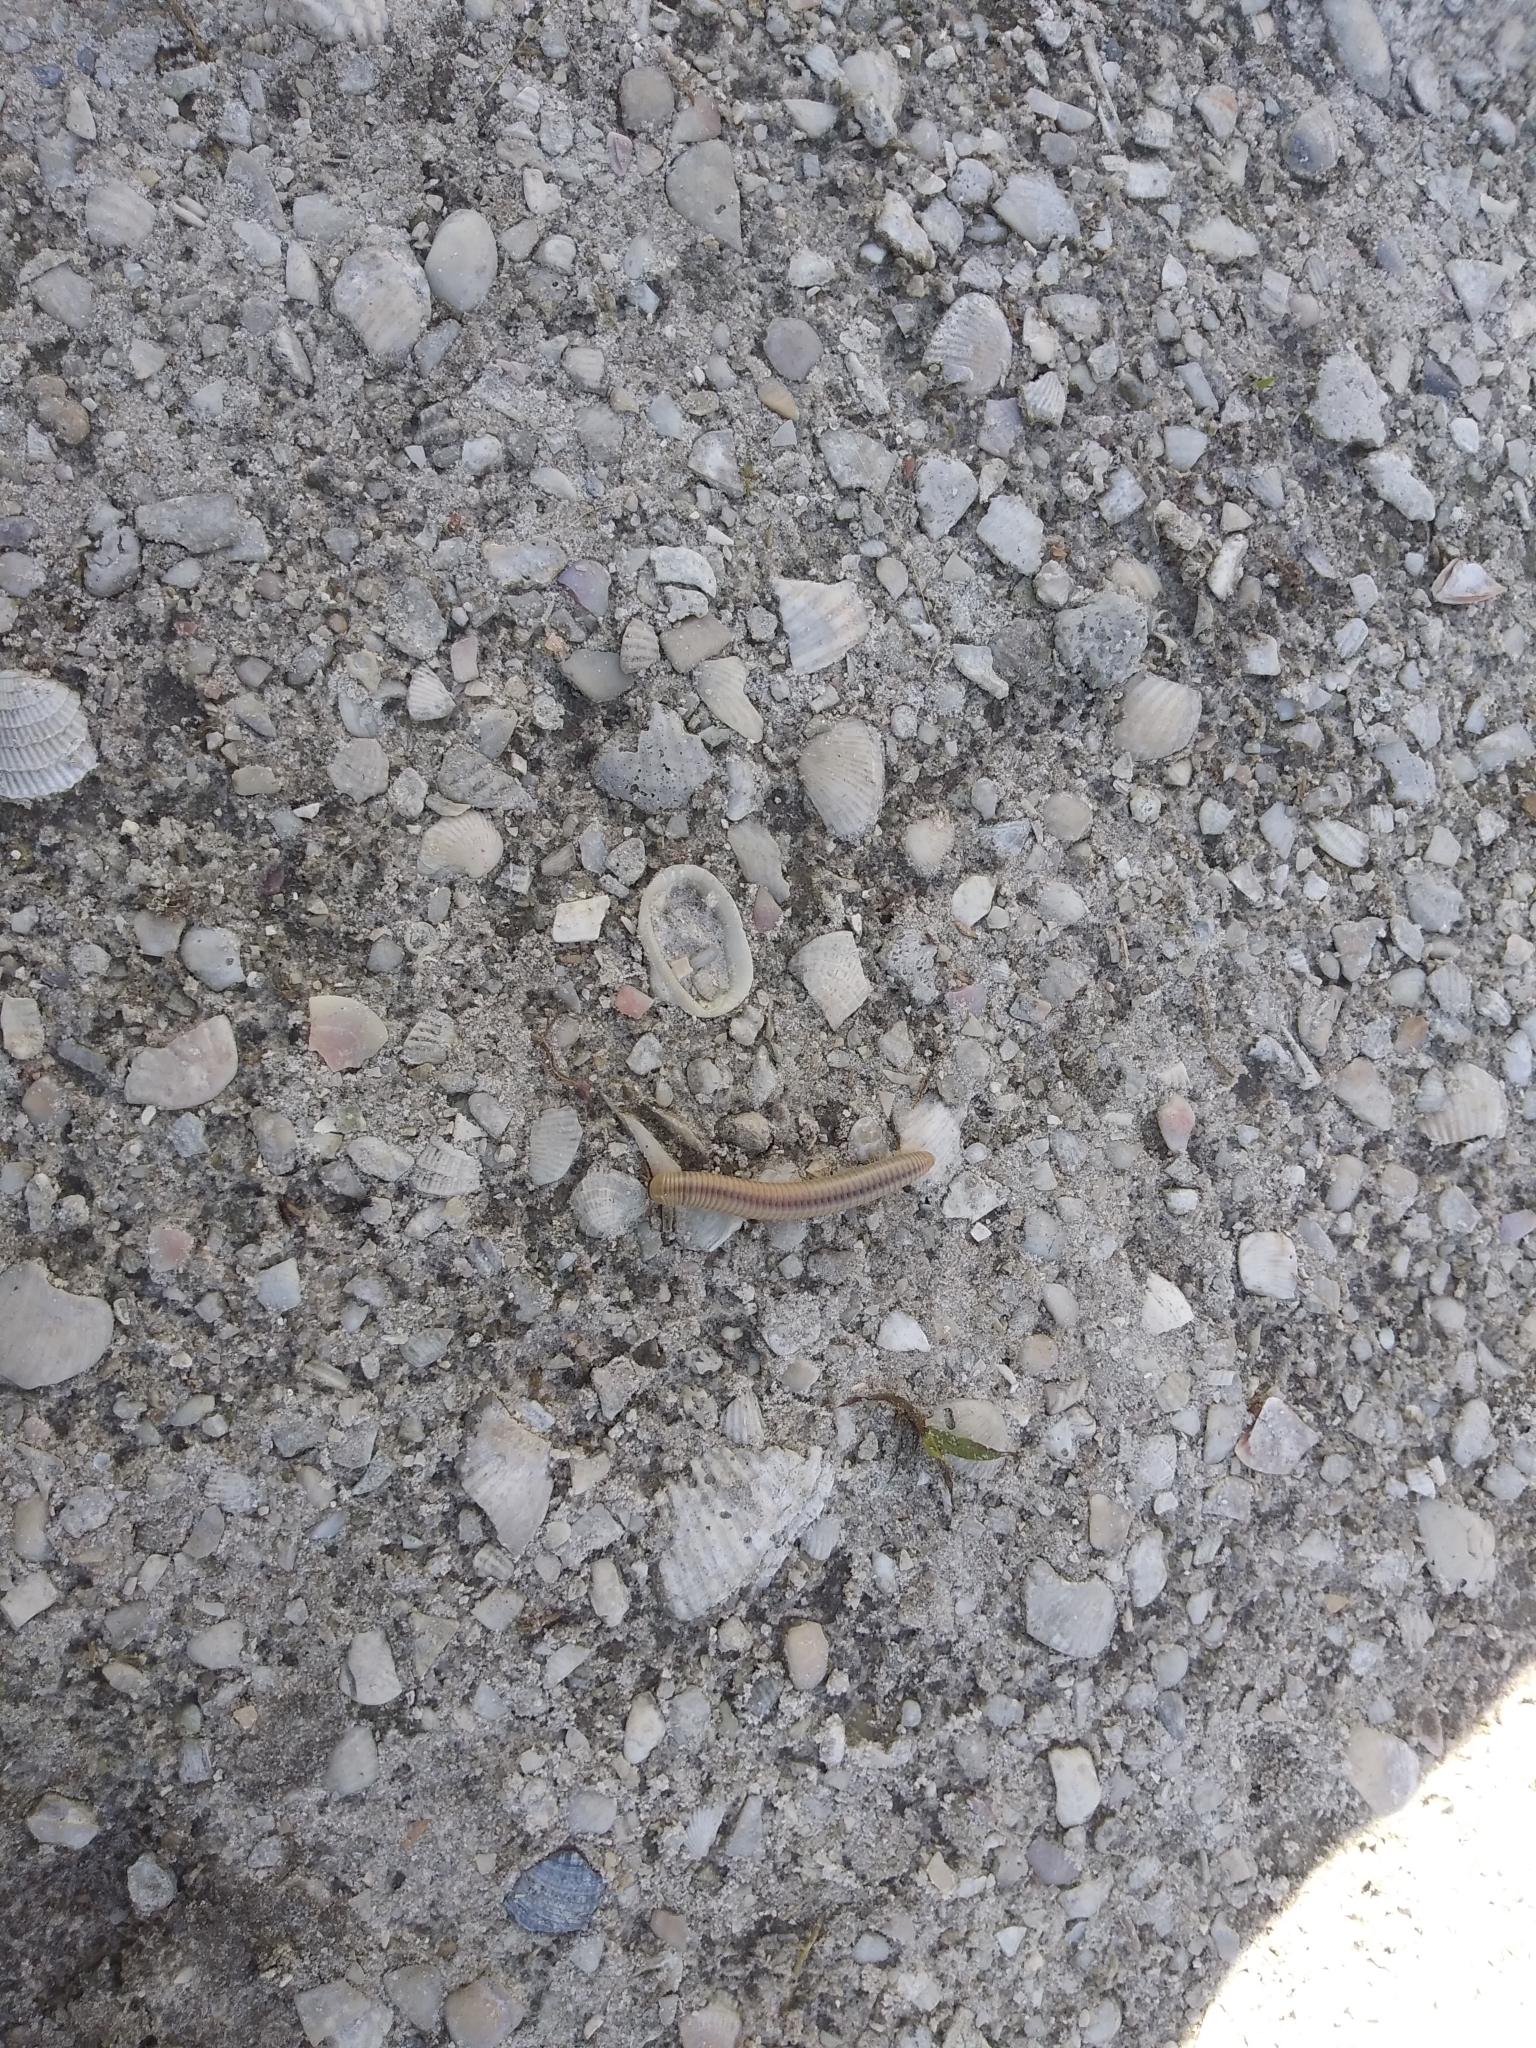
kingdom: Animalia
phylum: Arthropoda
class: Diplopoda
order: Spirobolida
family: Spirobolidae
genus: Chicobolus
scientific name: Chicobolus spinigerus
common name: Florida ivory millipede
